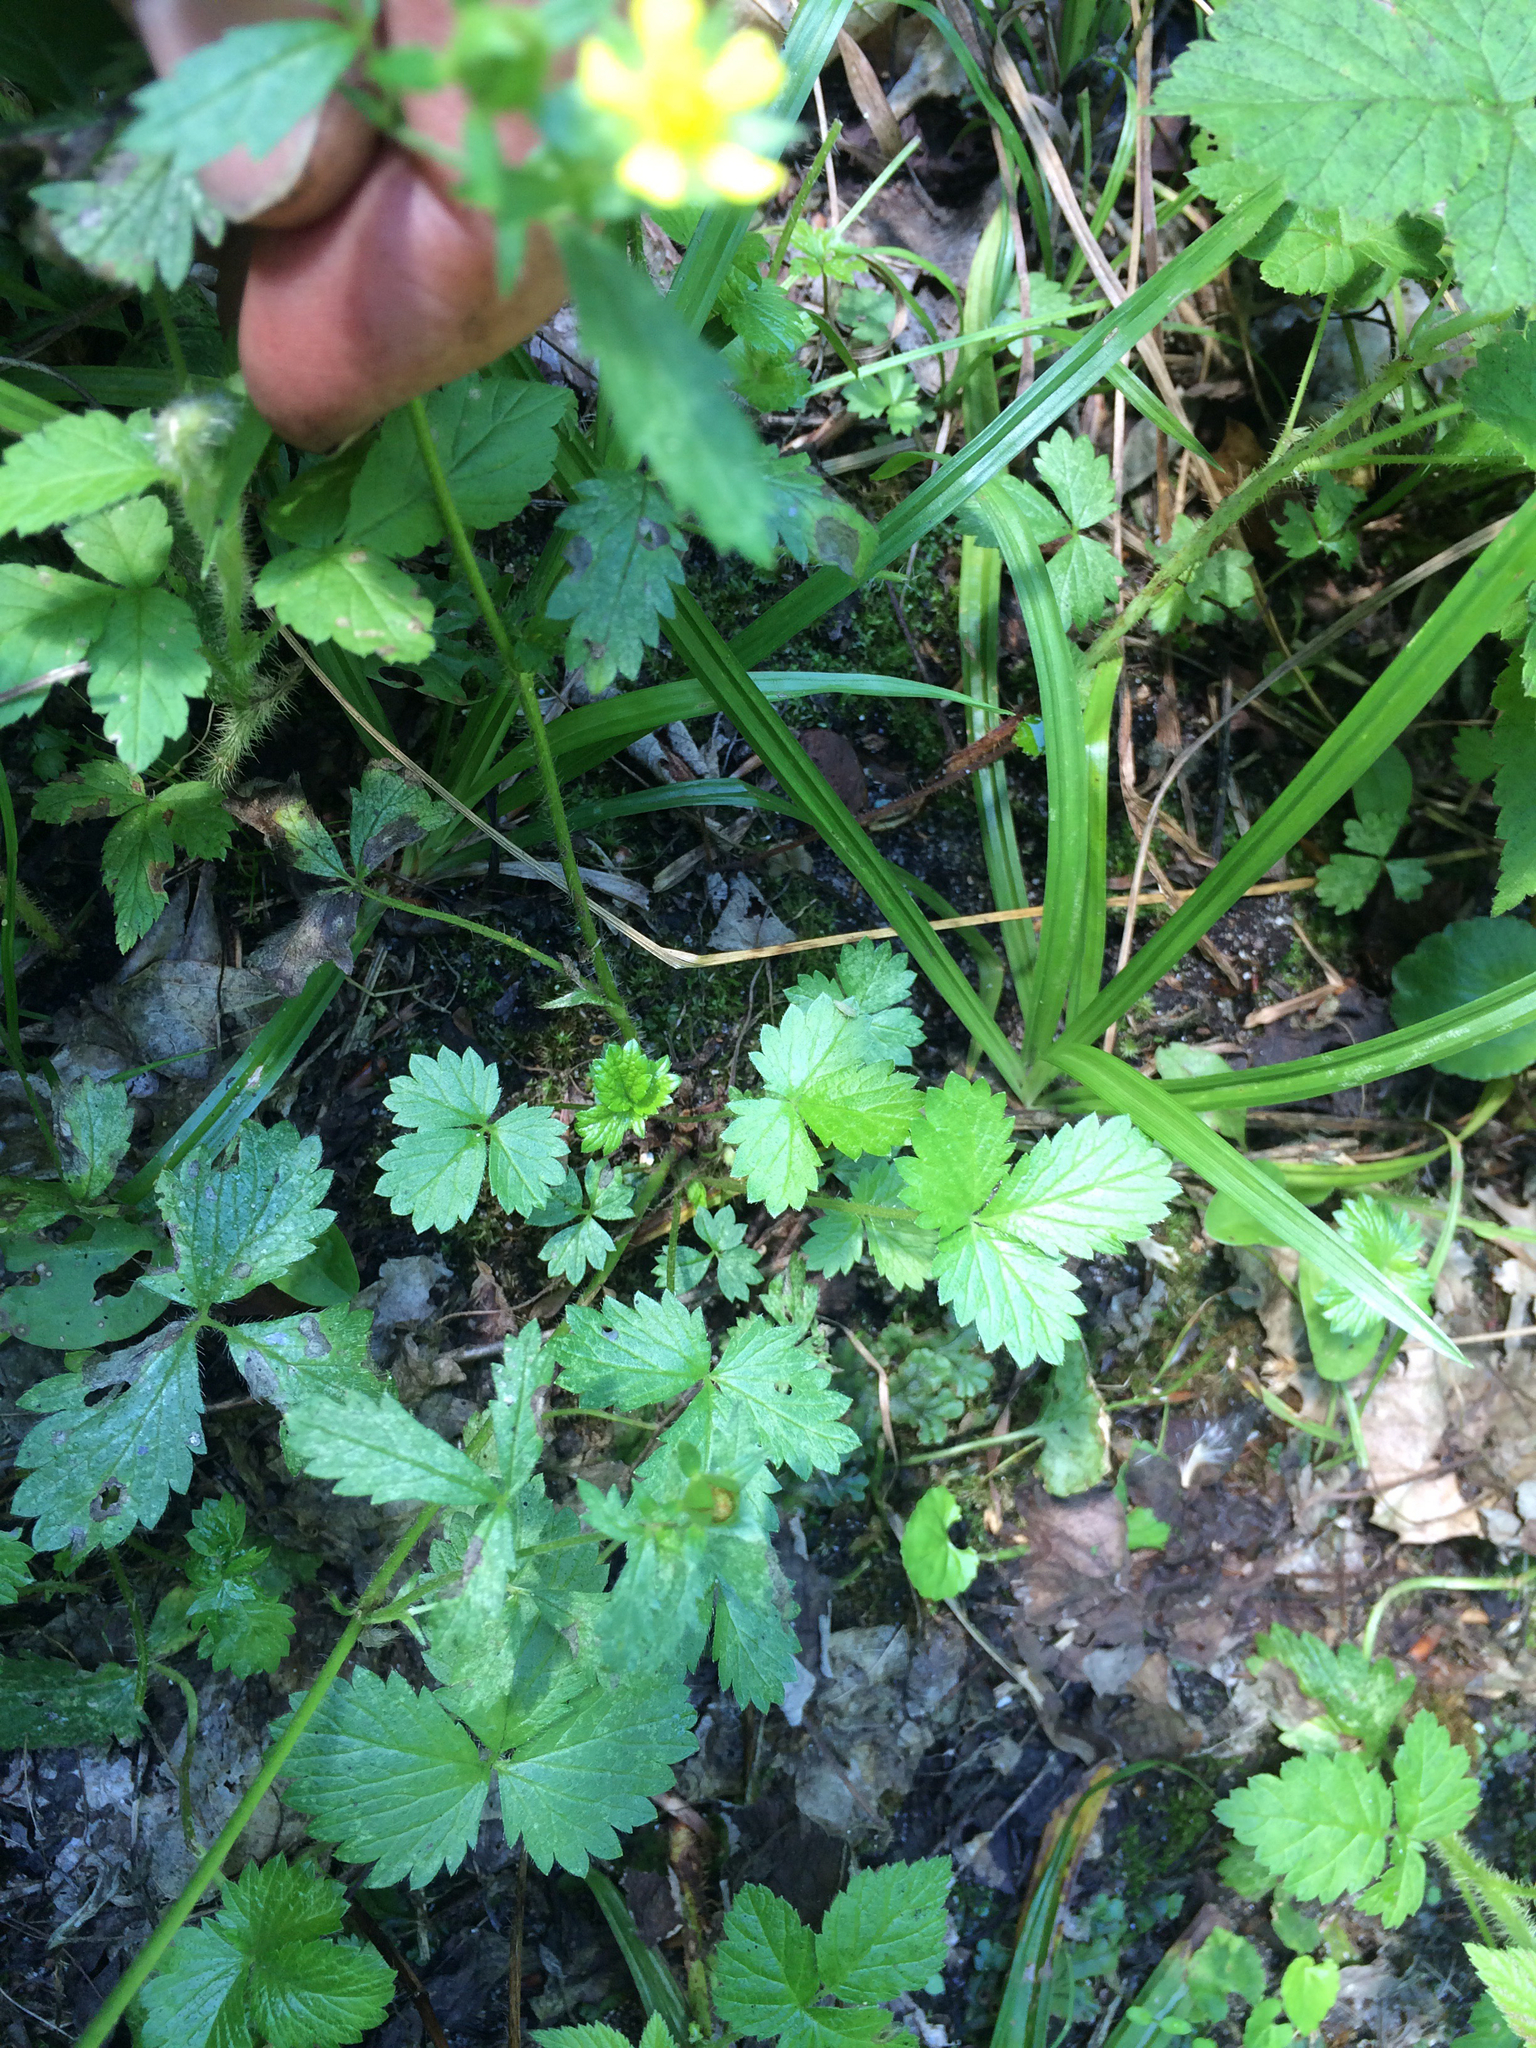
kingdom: Plantae
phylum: Tracheophyta
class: Magnoliopsida
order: Rosales
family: Rosaceae
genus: Potentilla
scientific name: Potentilla norvegica
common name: Ternate-leaved cinquefoil
